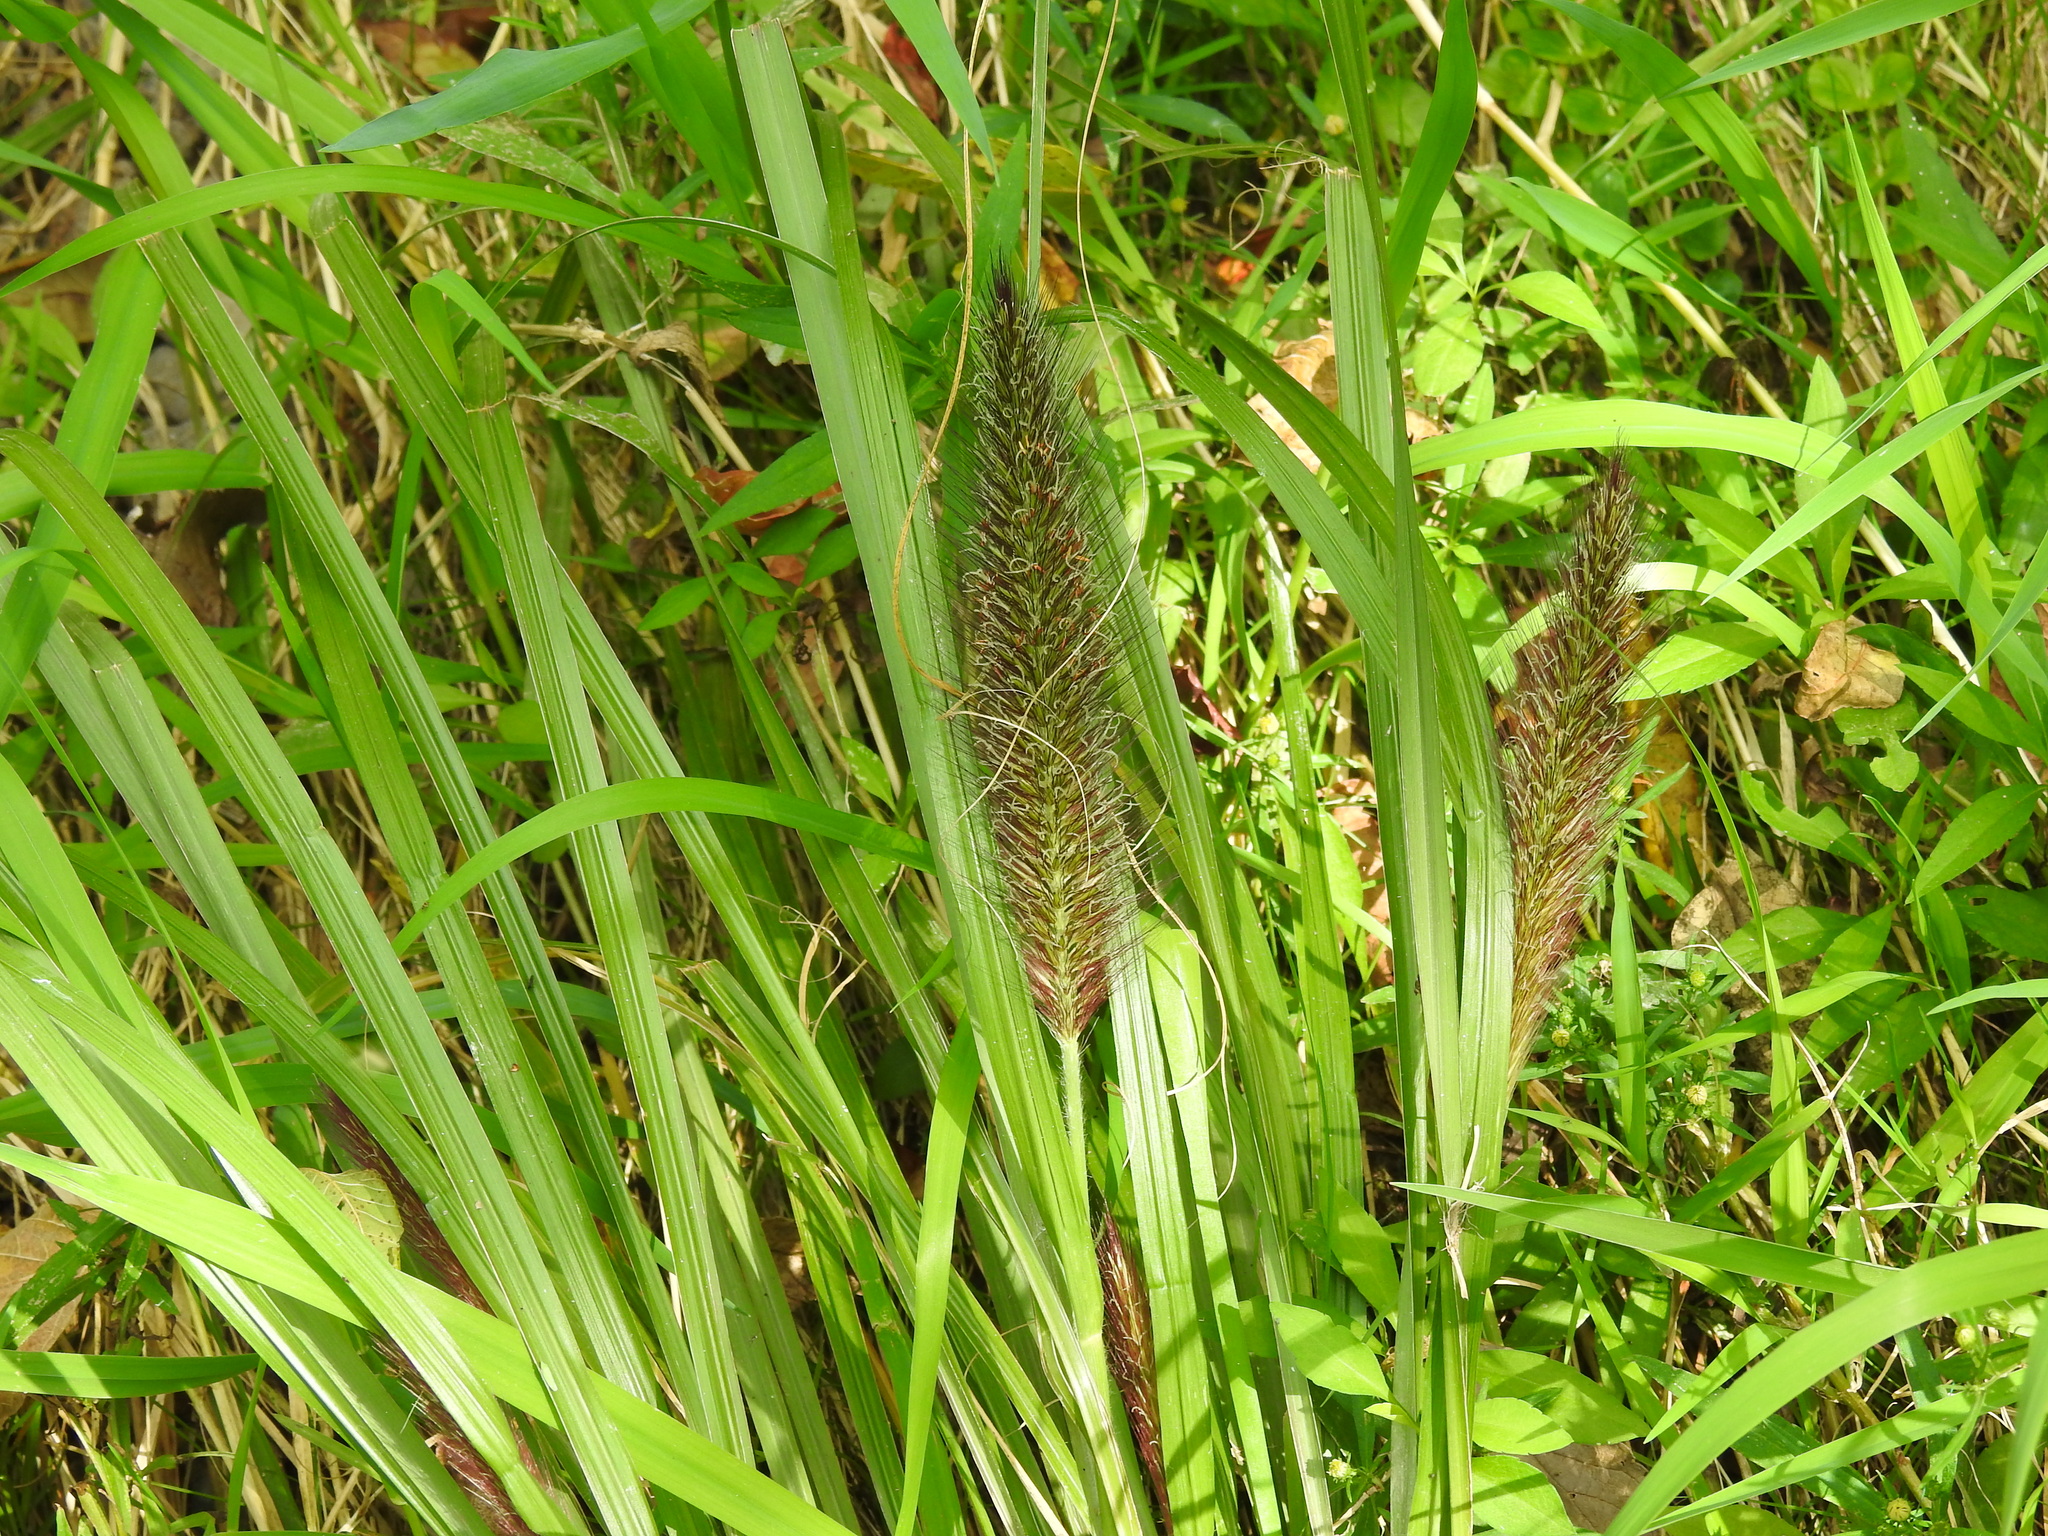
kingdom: Plantae
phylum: Tracheophyta
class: Liliopsida
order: Poales
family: Poaceae
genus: Cenchrus
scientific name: Cenchrus alopecuroides
